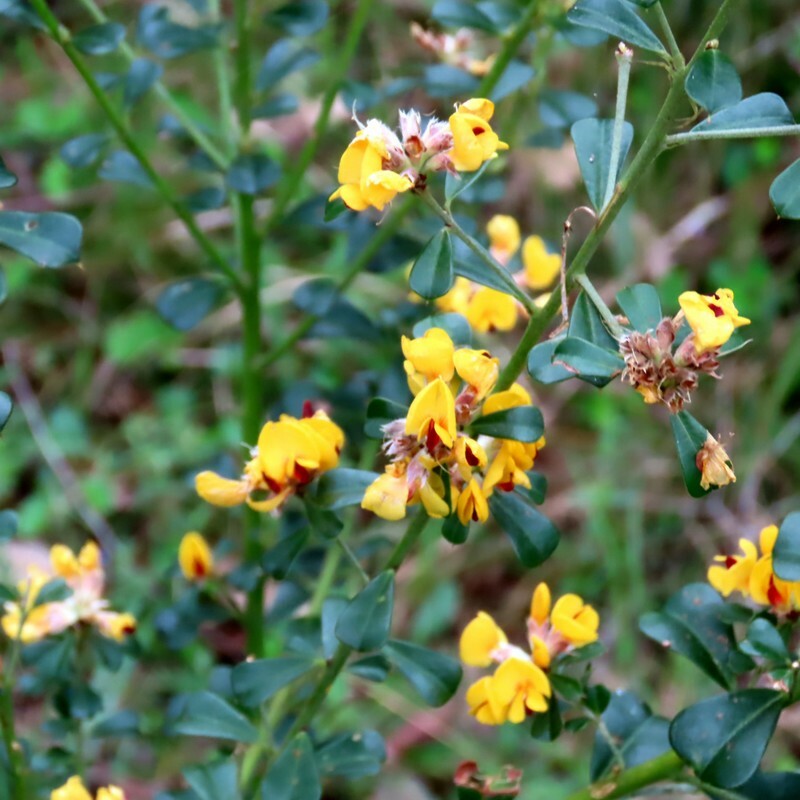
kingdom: Plantae
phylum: Tracheophyta
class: Magnoliopsida
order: Fabales
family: Fabaceae
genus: Pultenaea
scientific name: Pultenaea daphnoides
